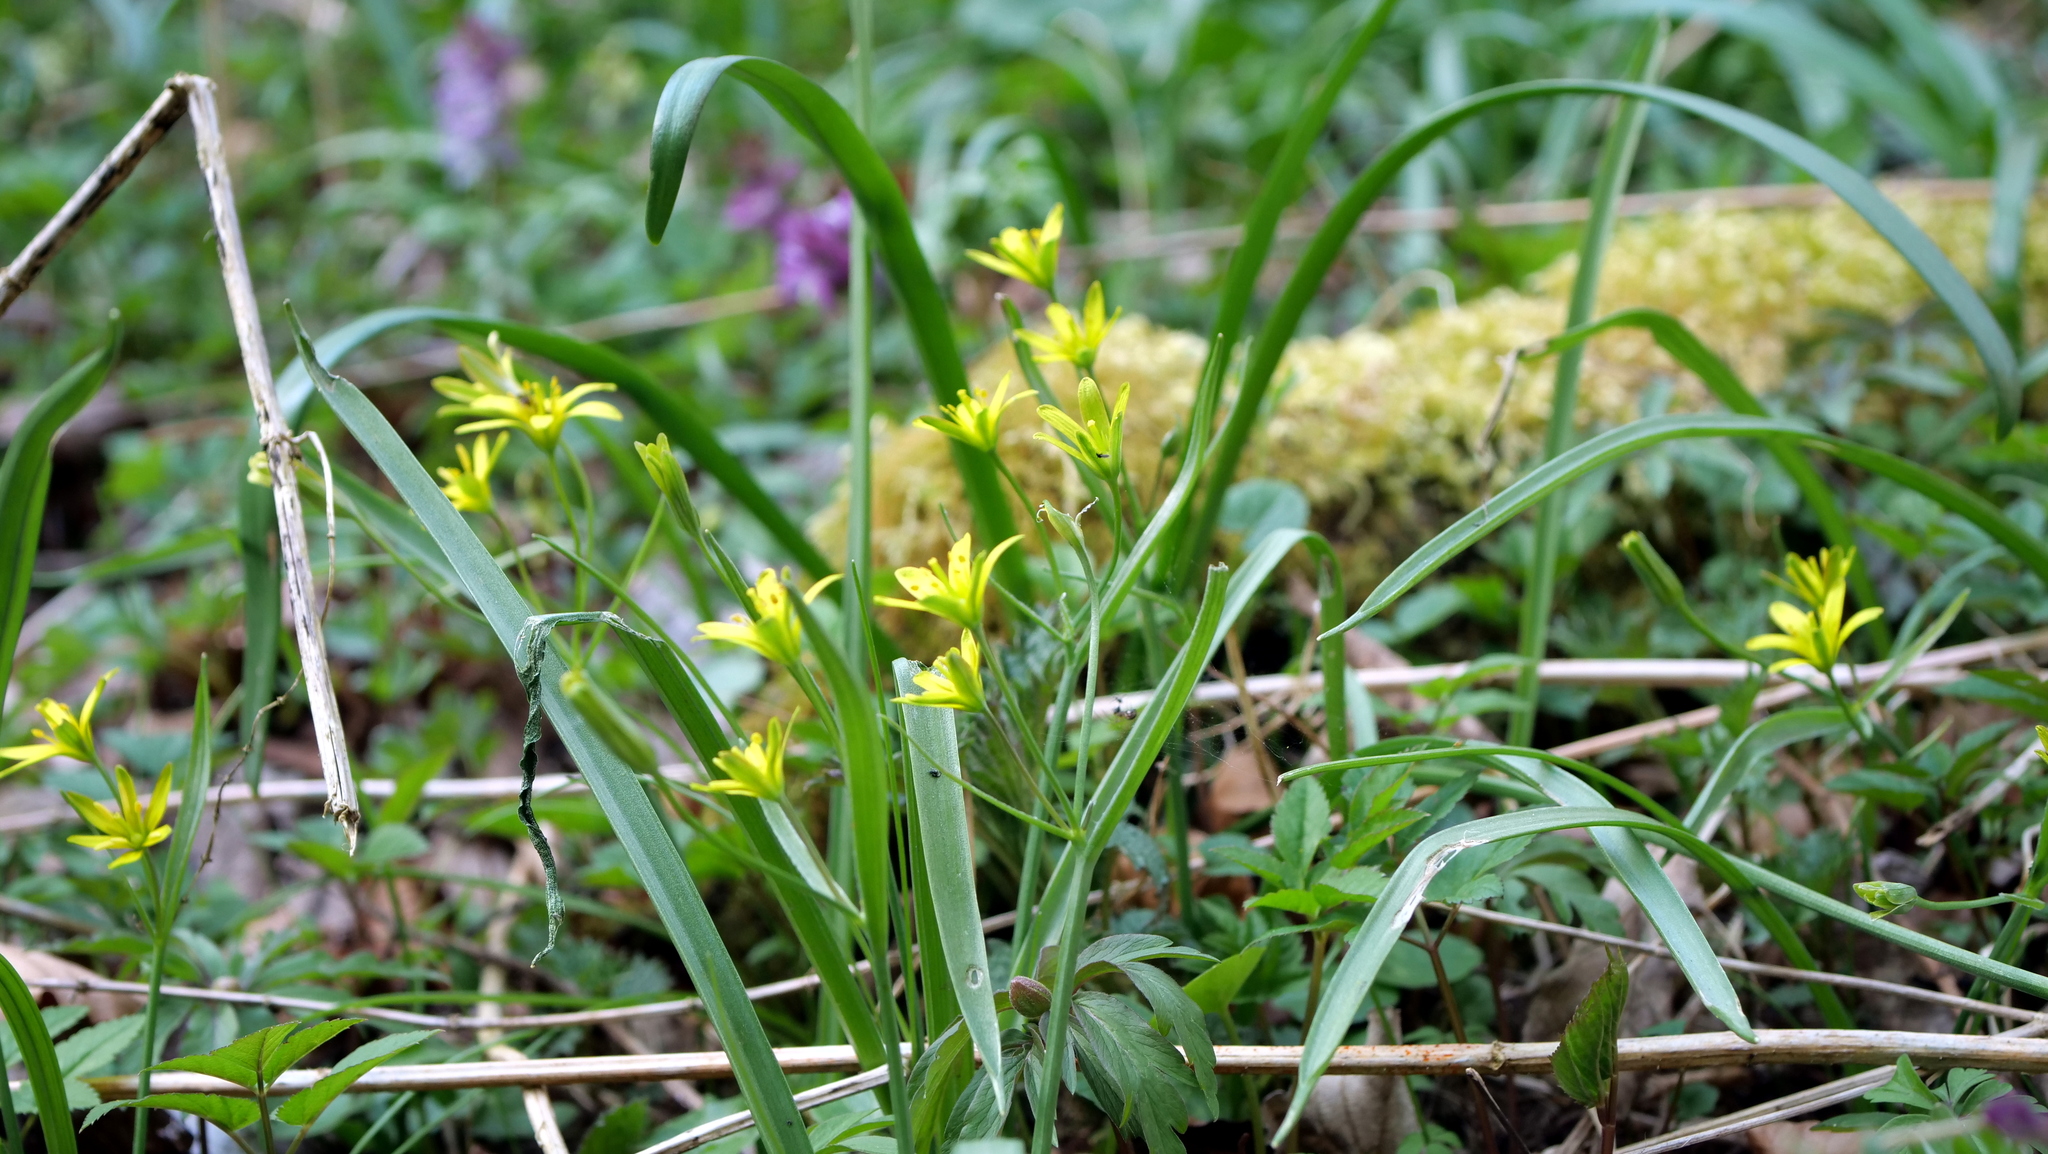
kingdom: Plantae
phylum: Tracheophyta
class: Liliopsida
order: Liliales
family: Liliaceae
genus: Gagea
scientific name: Gagea lutea
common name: Yellow star-of-bethlehem
